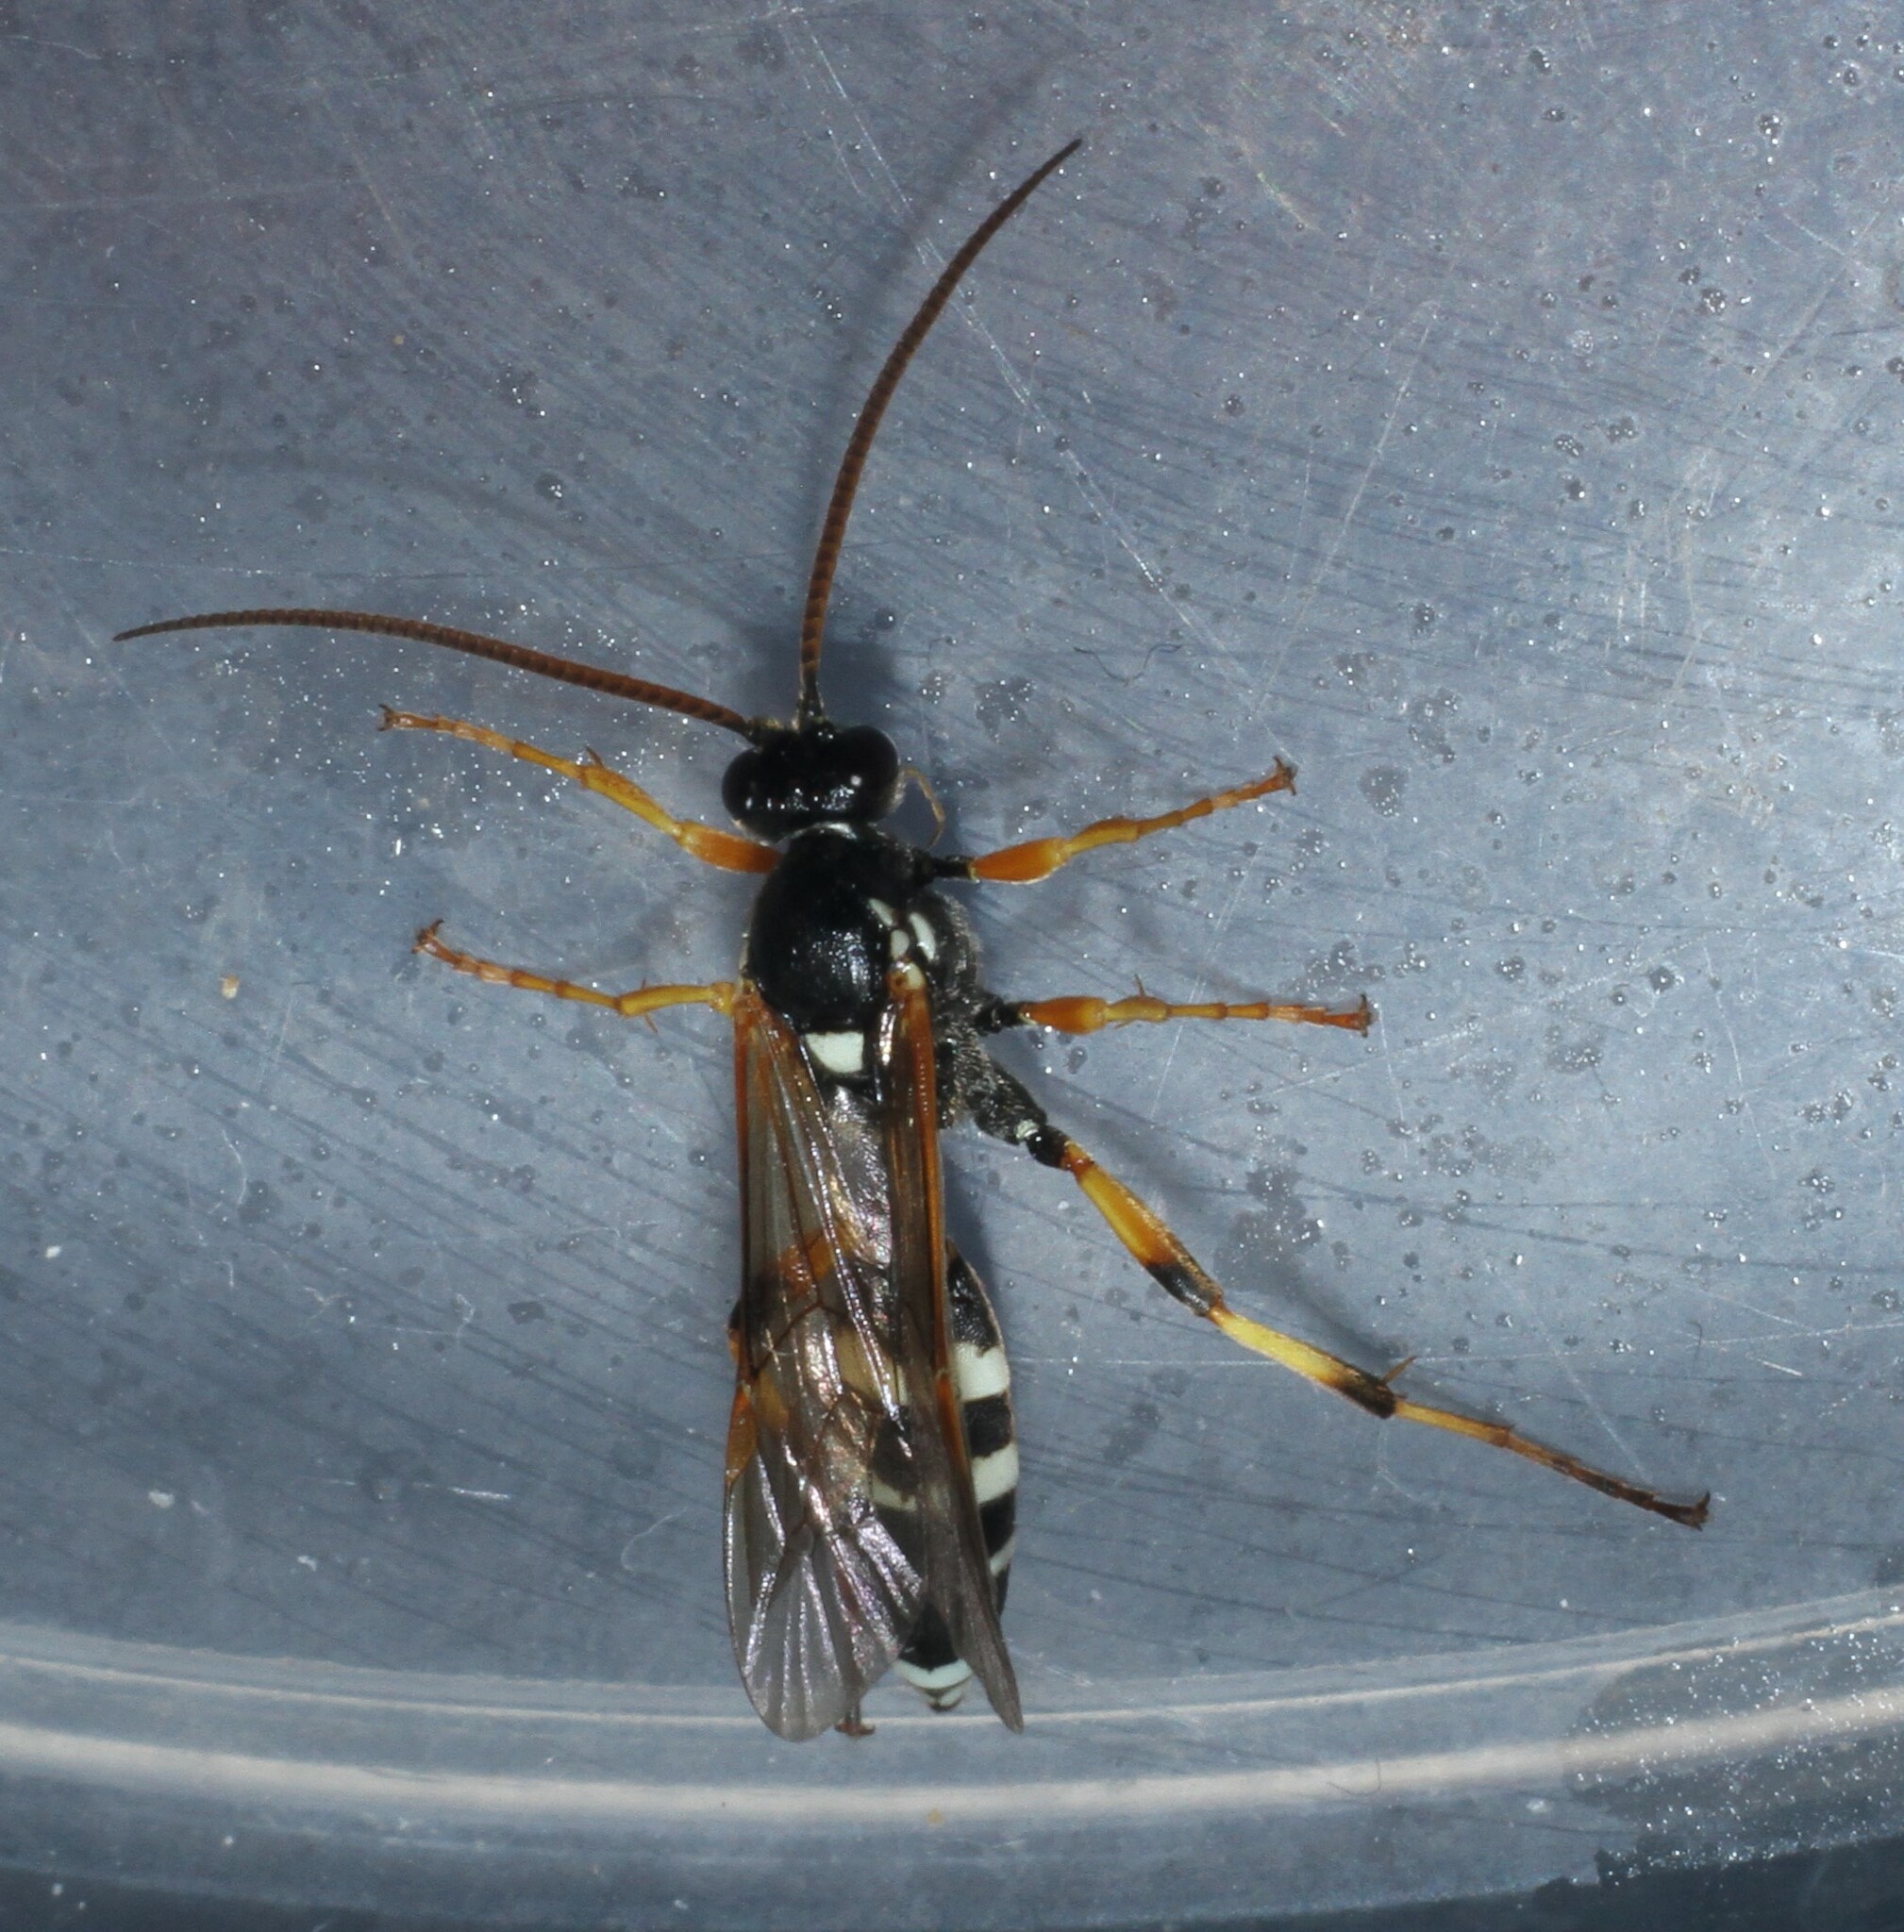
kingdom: Animalia
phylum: Arthropoda
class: Insecta
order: Hymenoptera
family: Ichneumonidae
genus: Ichneumon
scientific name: Ichneumon sarcitorius
